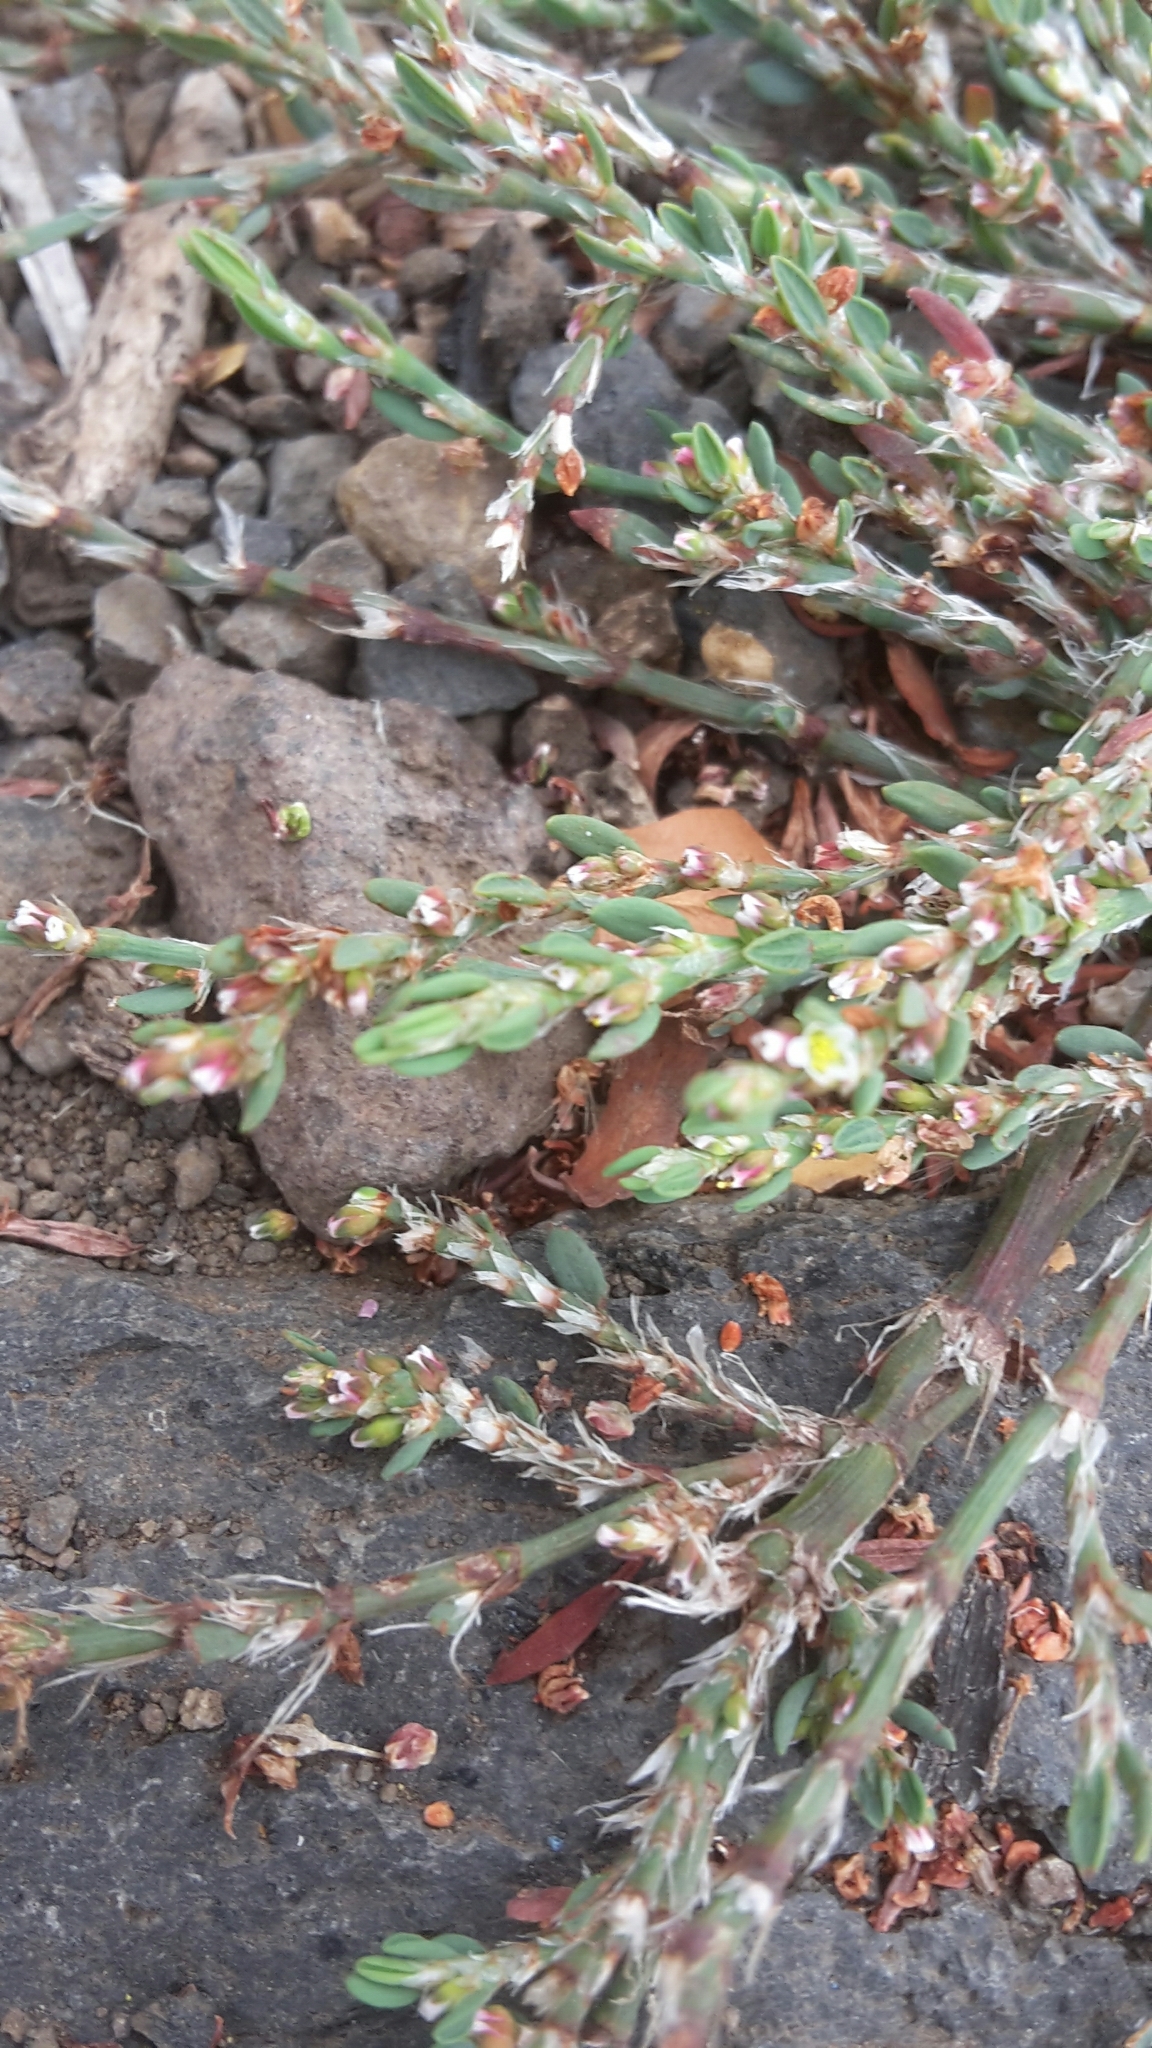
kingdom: Plantae
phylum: Tracheophyta
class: Magnoliopsida
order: Caryophyllales
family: Polygonaceae
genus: Polygonum
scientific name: Polygonum maritimum
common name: Sea knotgrass
